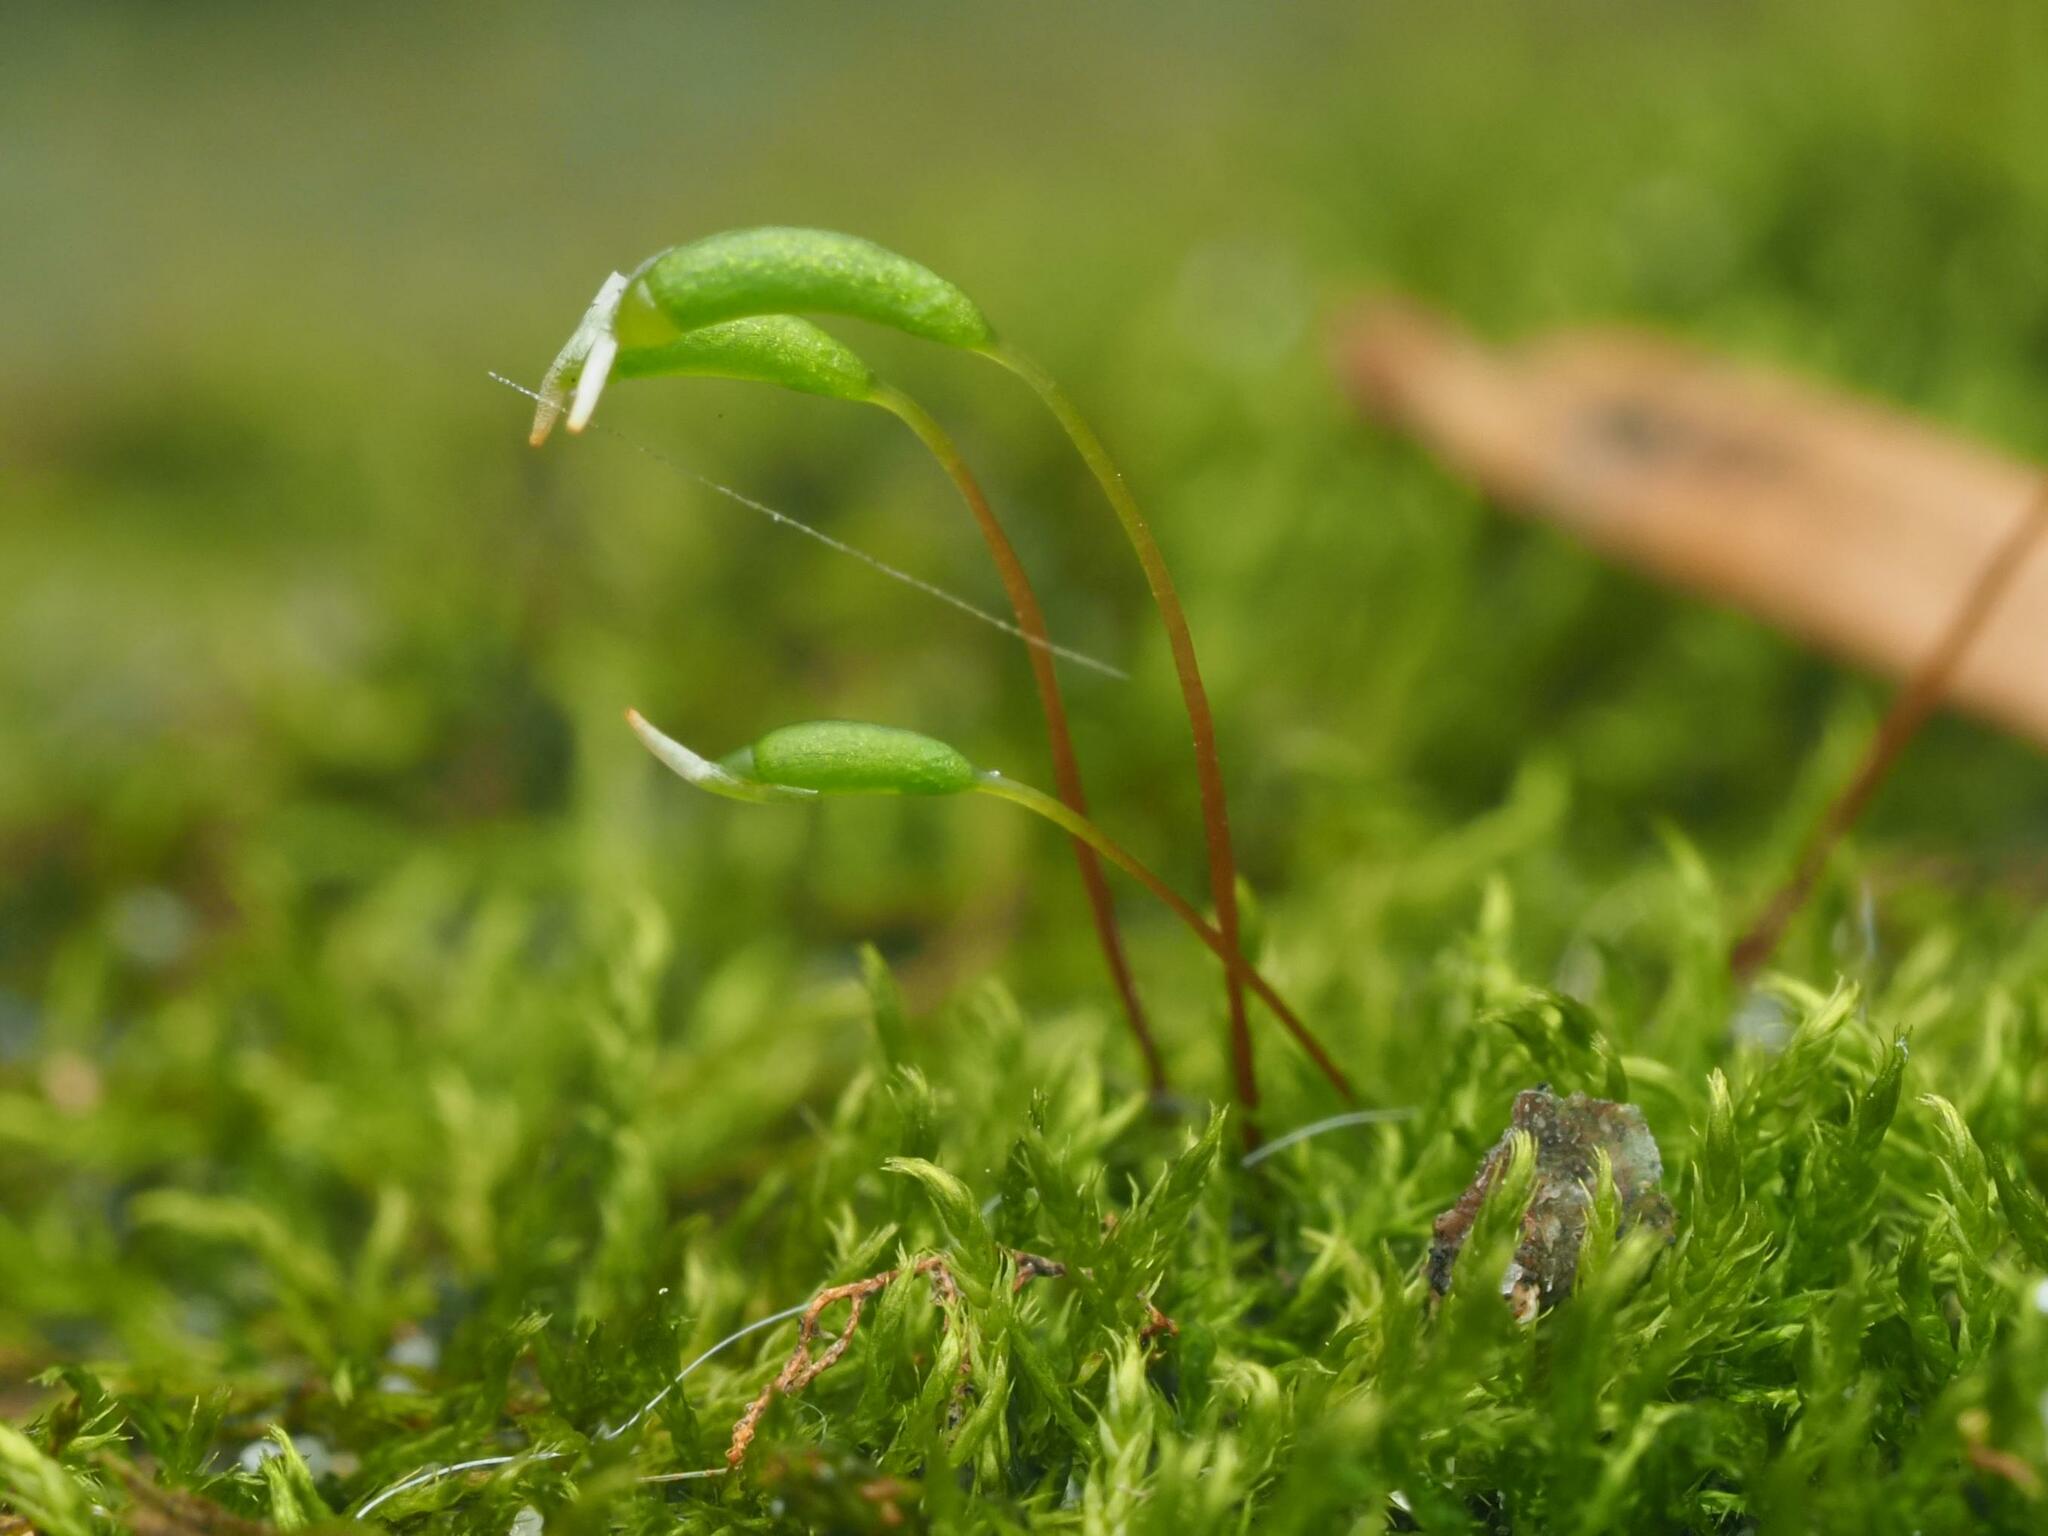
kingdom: Plantae
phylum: Bryophyta
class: Bryopsida
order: Hypnales
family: Amblystegiaceae
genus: Amblystegium
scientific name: Amblystegium serpens
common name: Jurkatzka's feather moss
